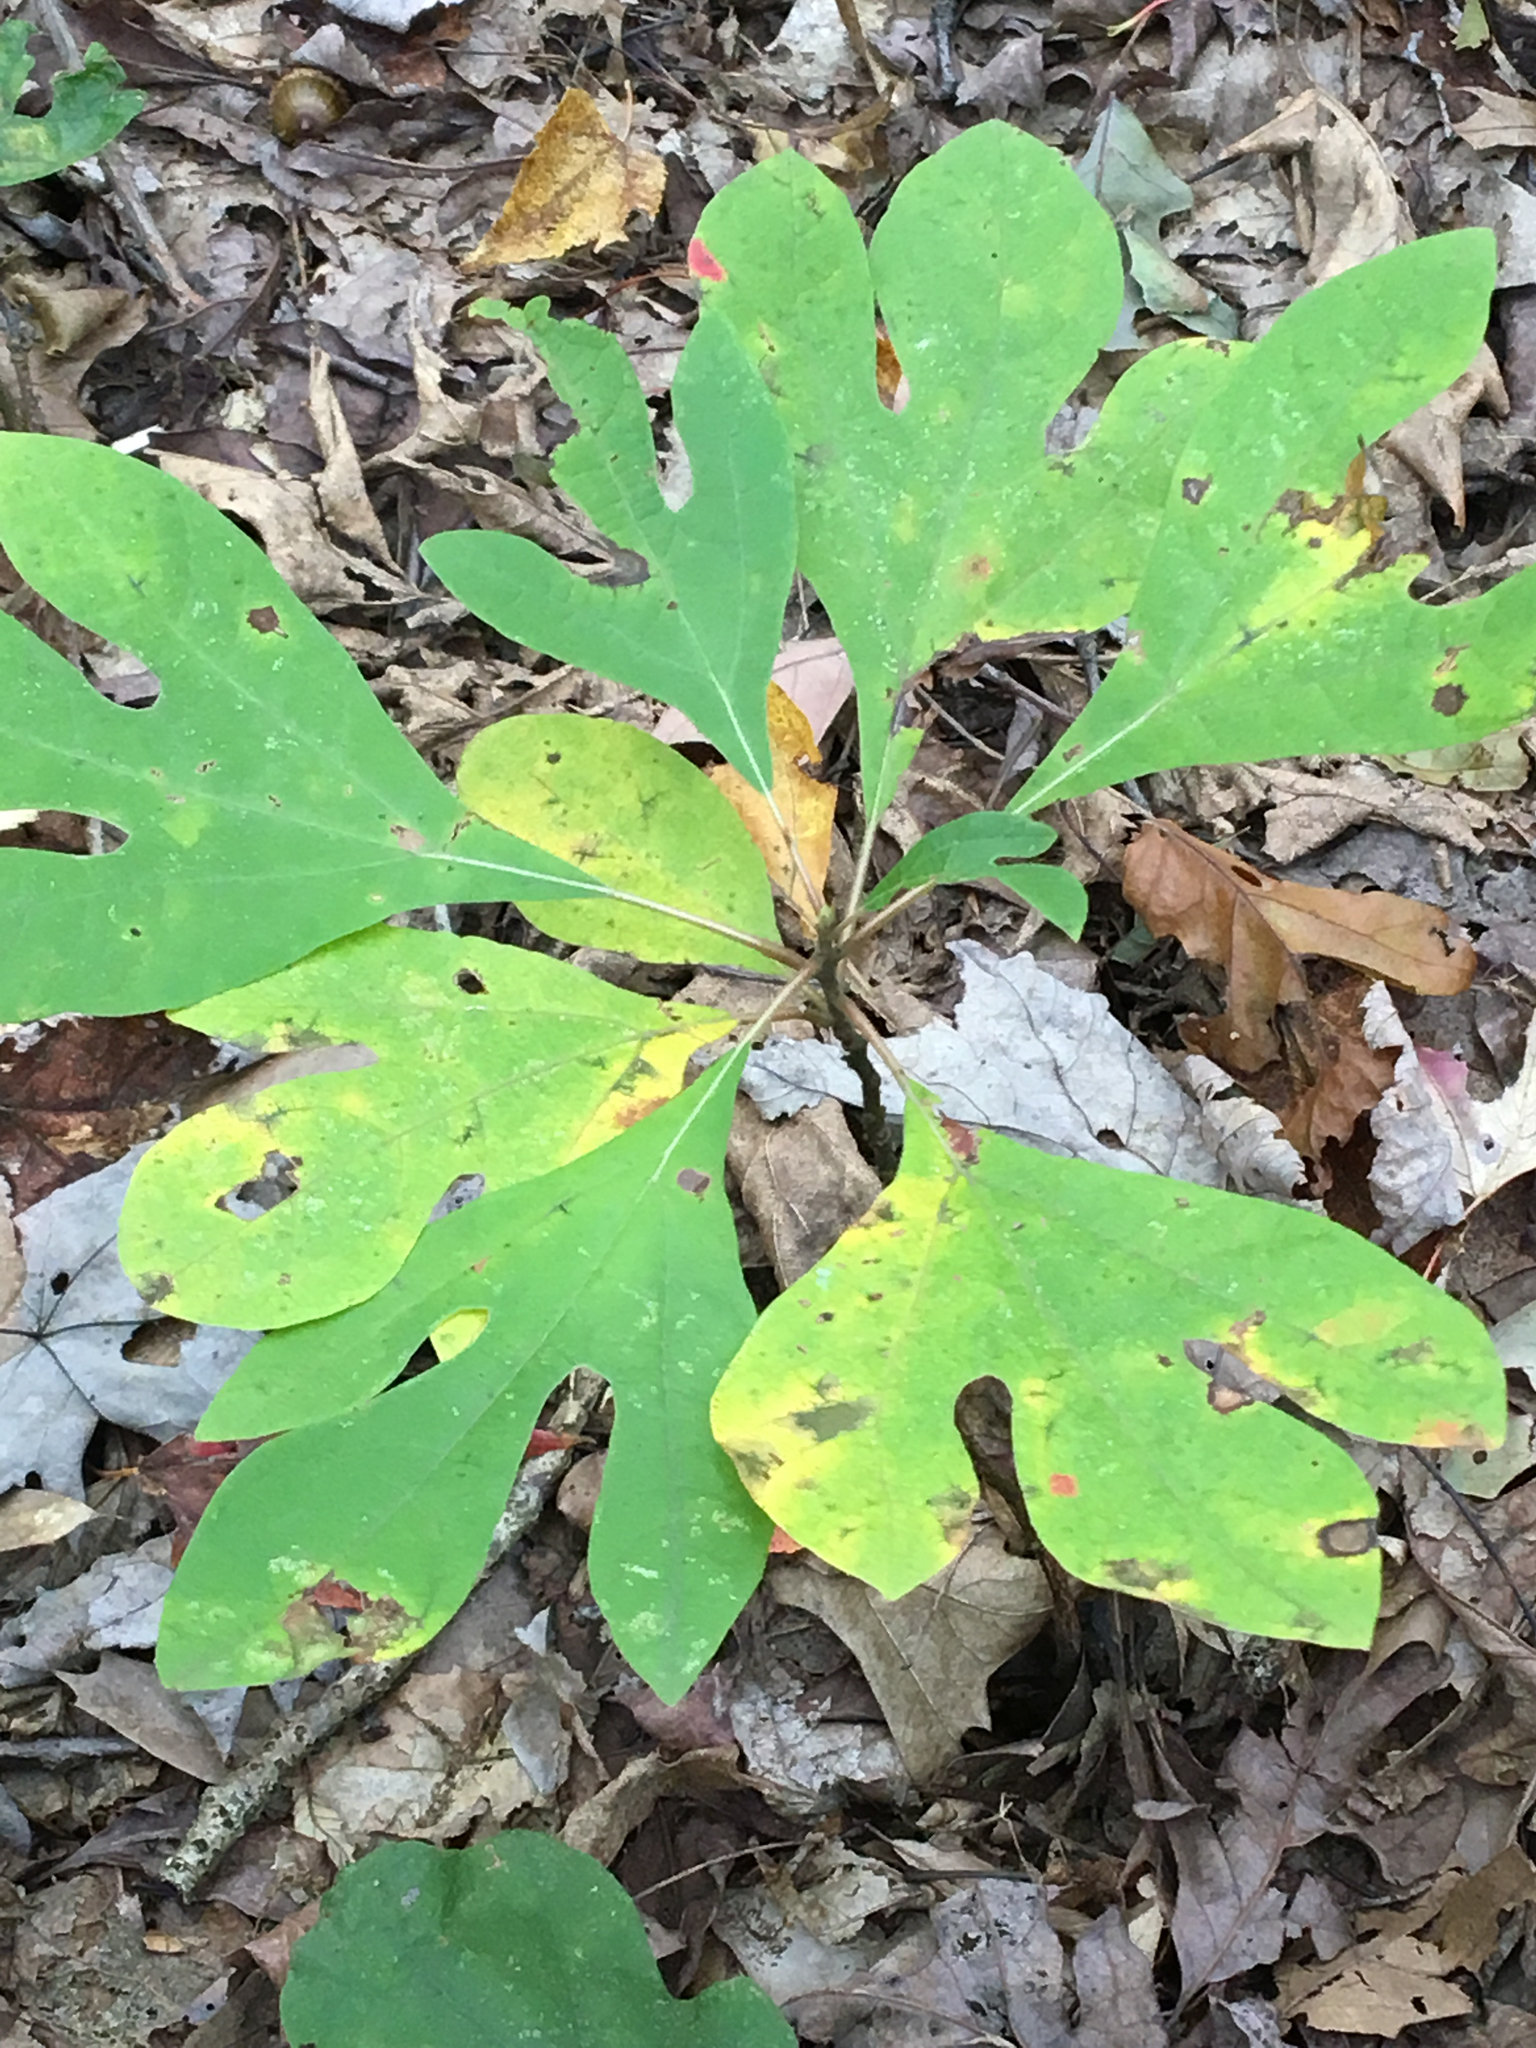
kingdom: Plantae
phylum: Tracheophyta
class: Magnoliopsida
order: Laurales
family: Lauraceae
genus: Sassafras
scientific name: Sassafras albidum
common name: Sassafras
